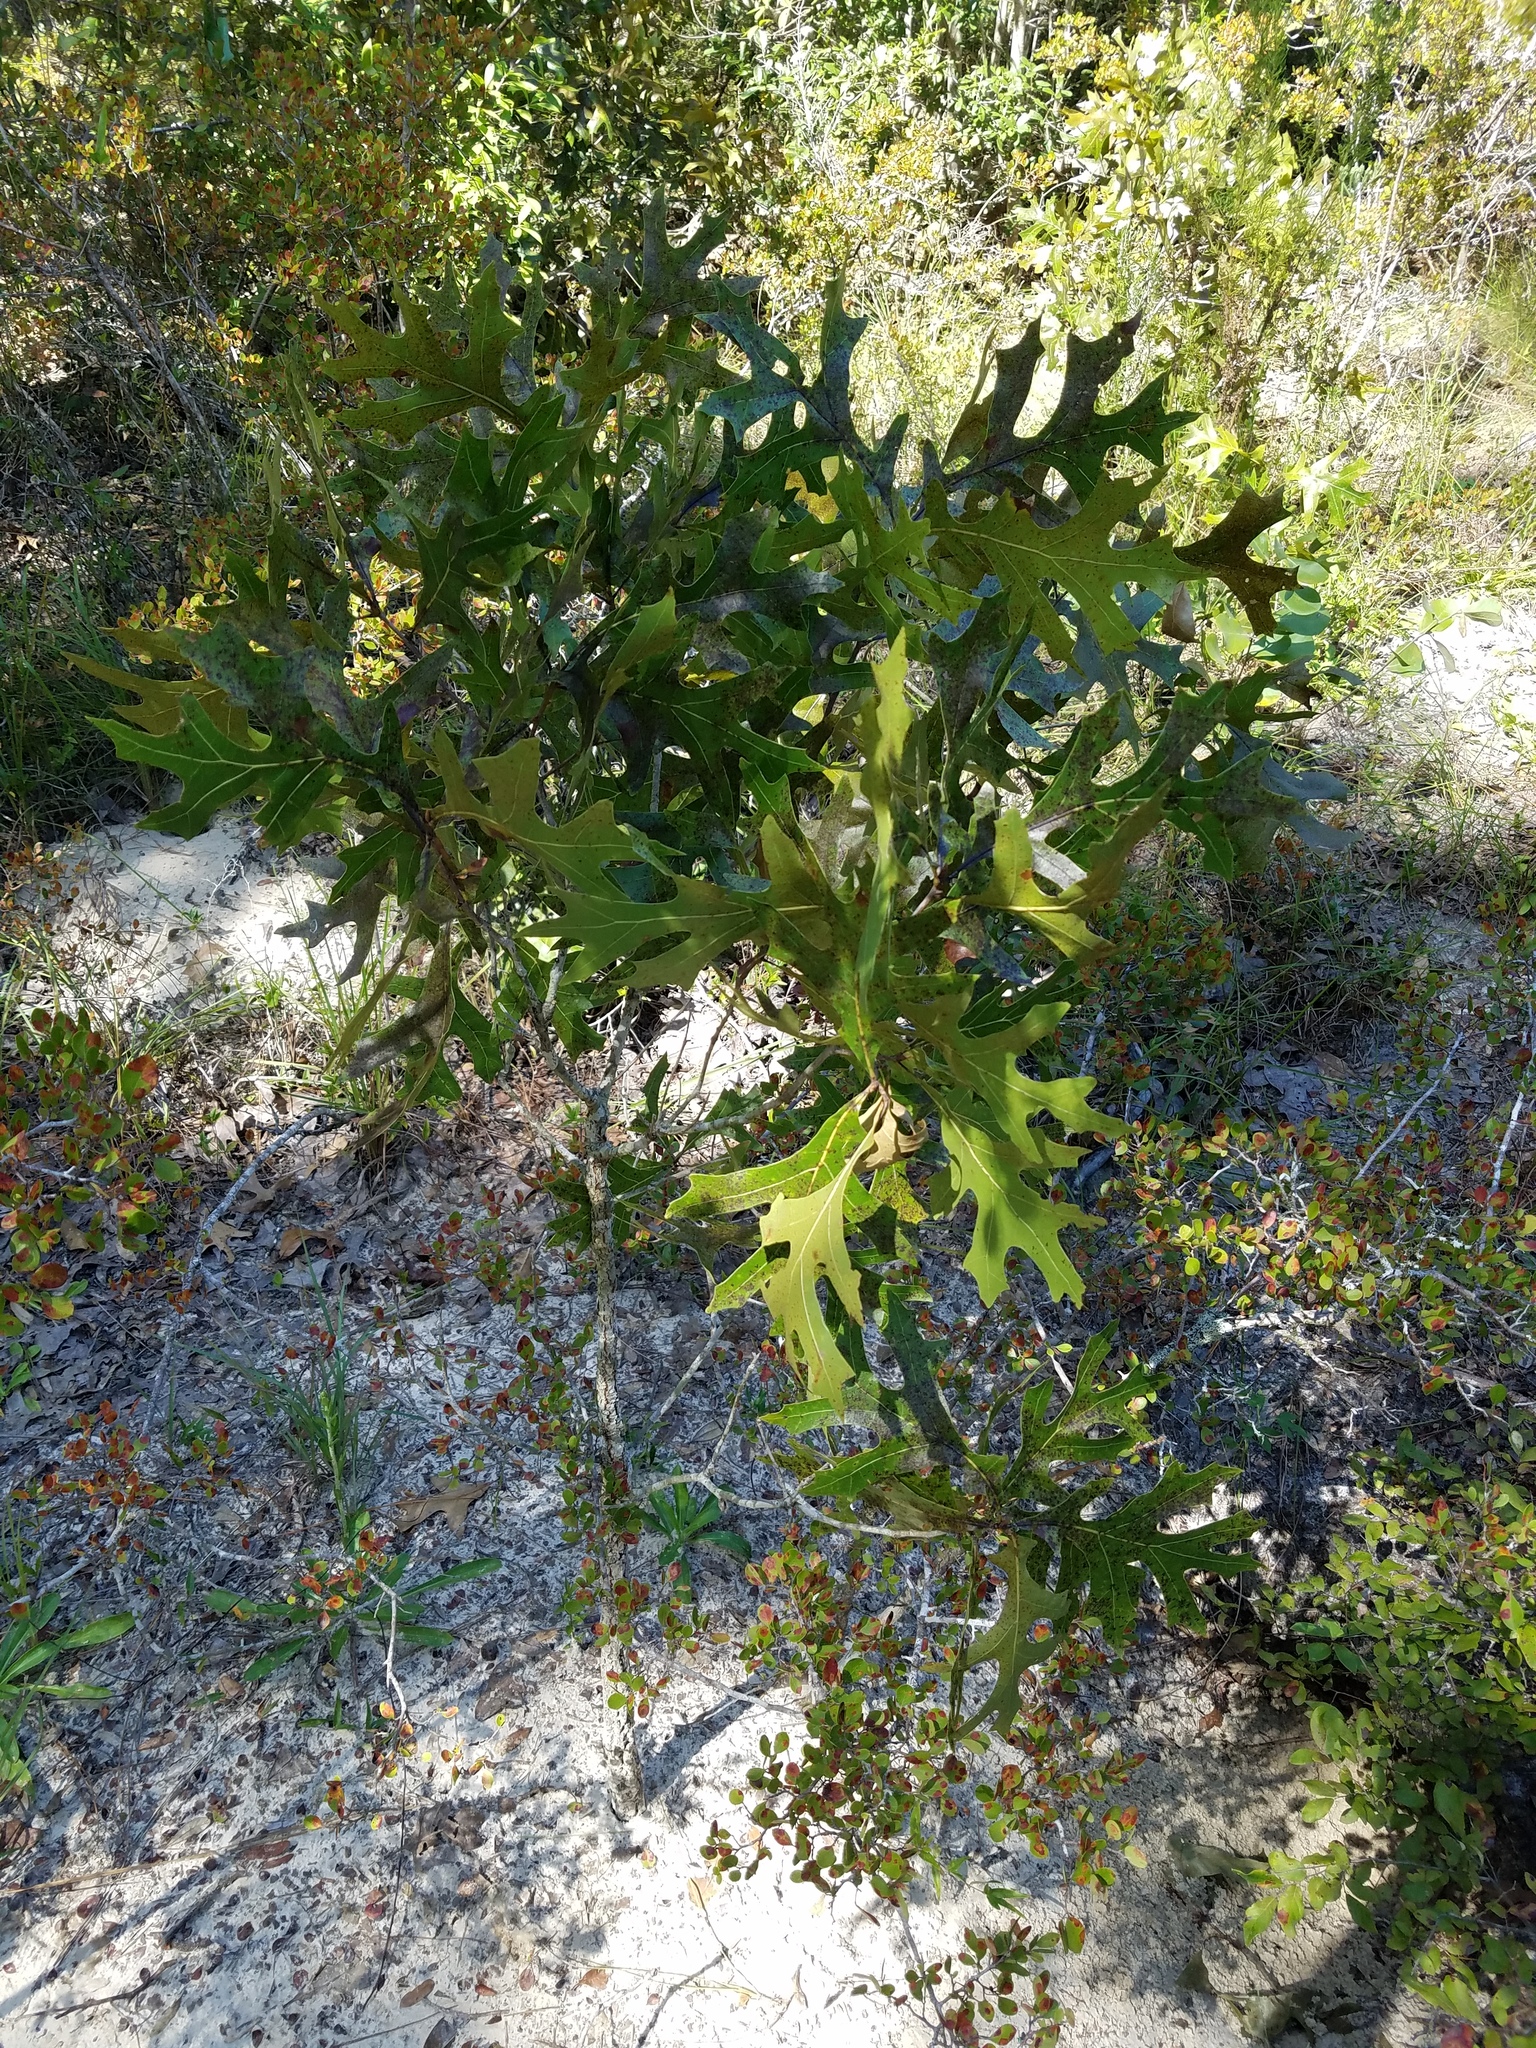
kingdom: Plantae
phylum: Tracheophyta
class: Magnoliopsida
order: Fagales
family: Fagaceae
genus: Quercus
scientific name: Quercus laevis
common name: Turkey oak
